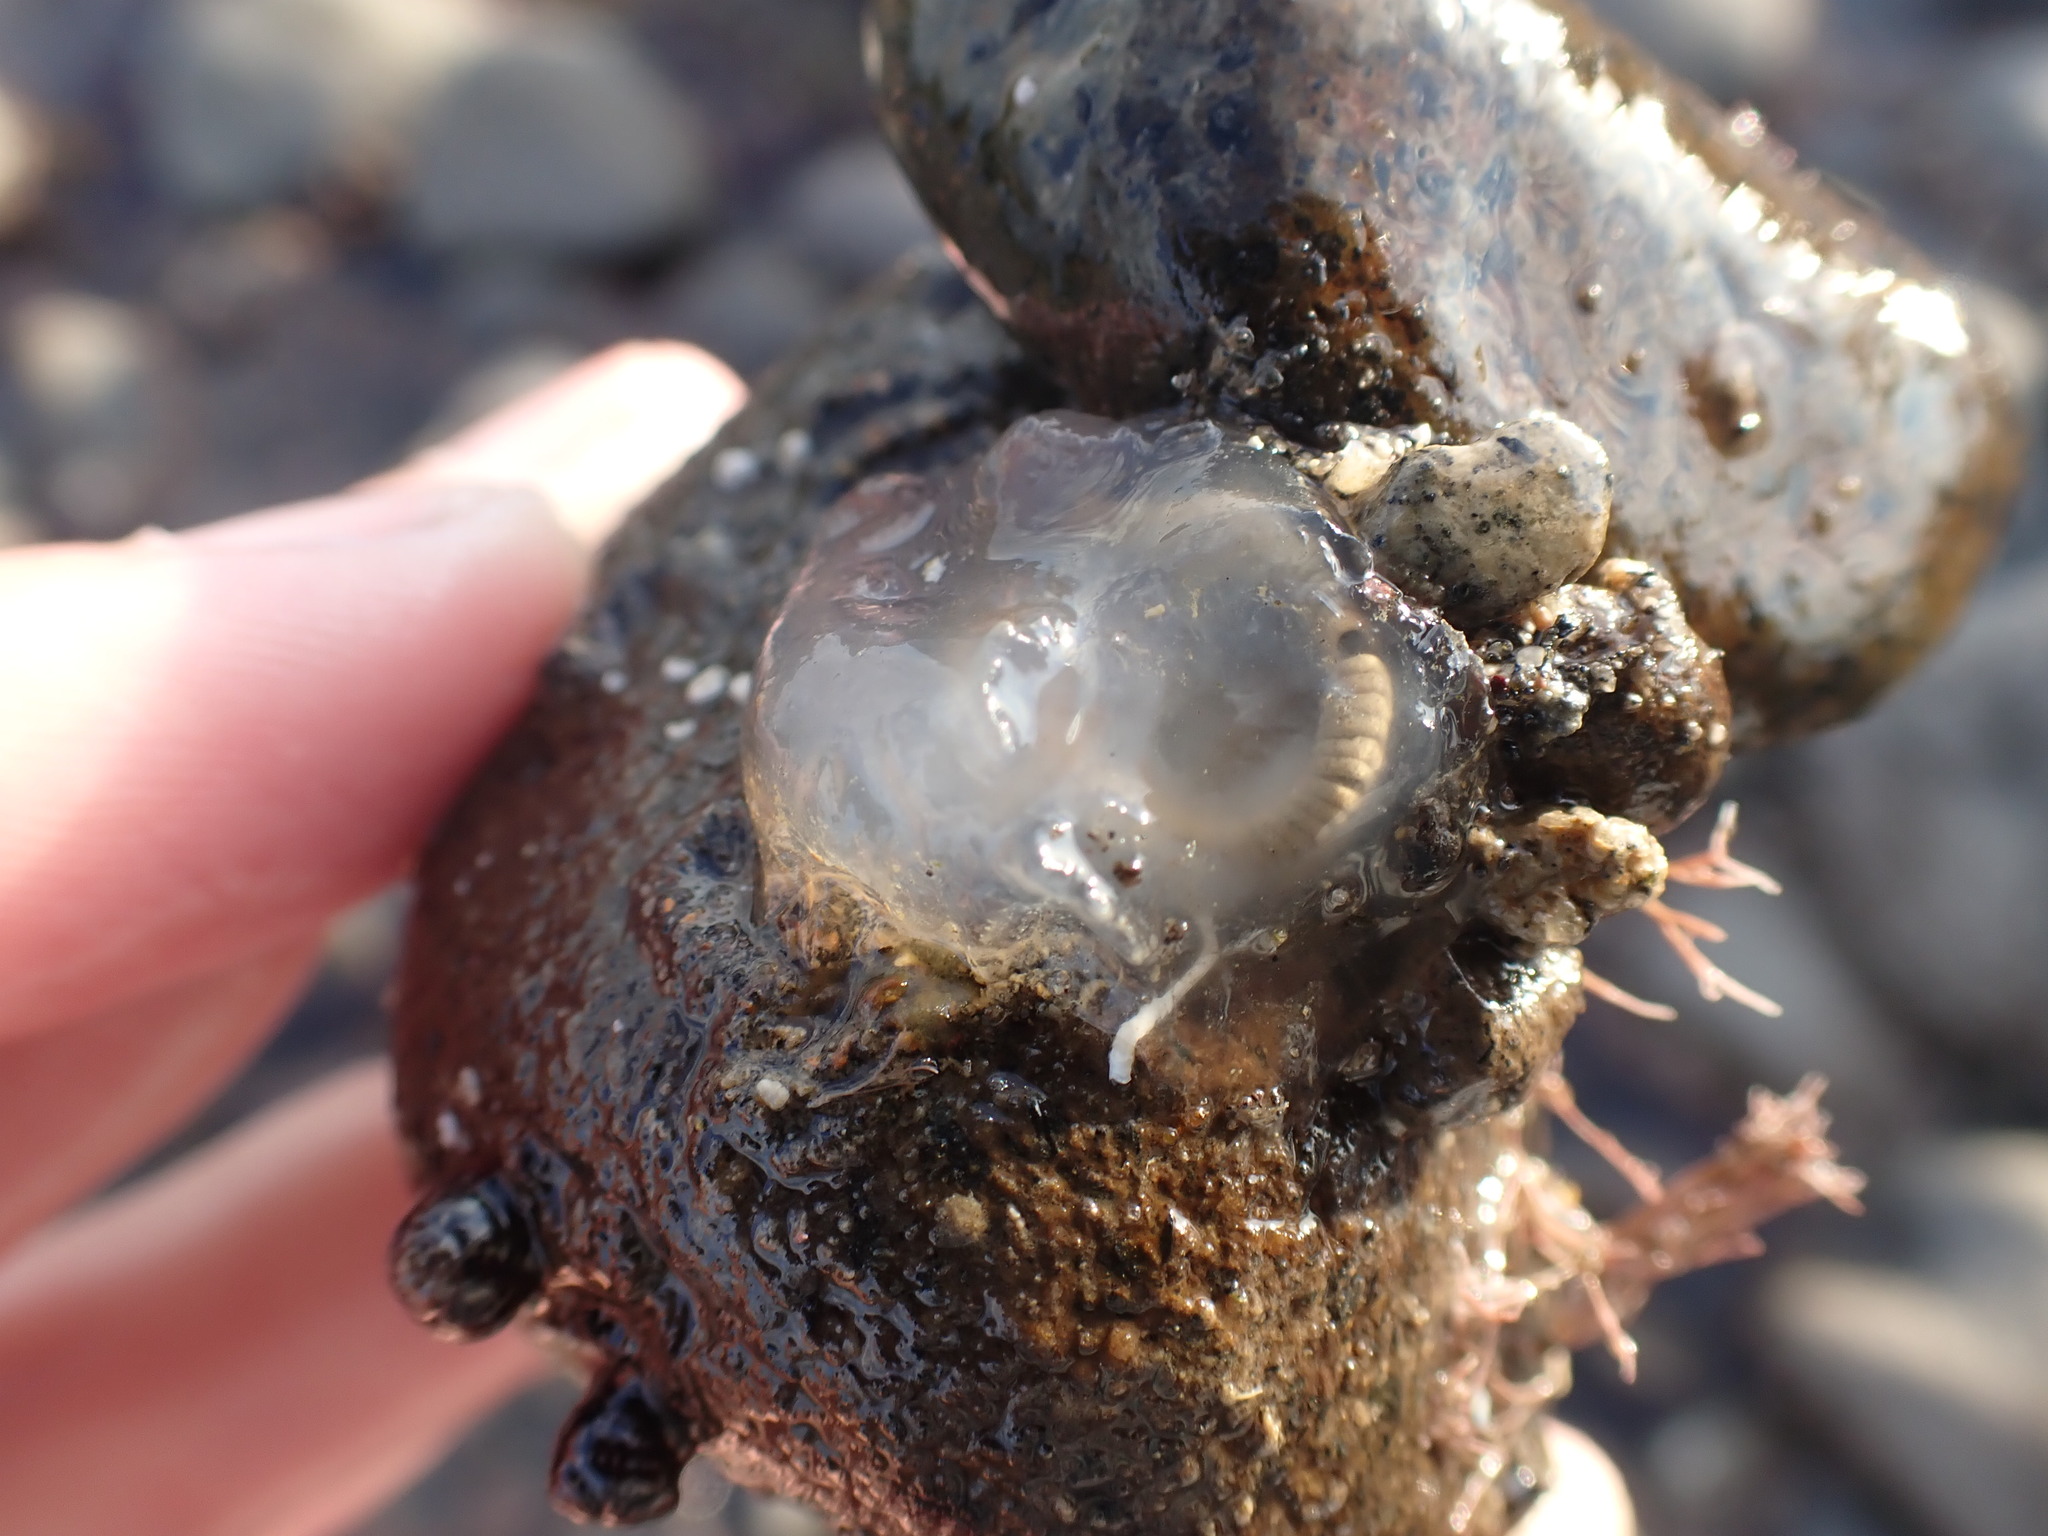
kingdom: Animalia
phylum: Chordata
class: Ascidiacea
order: Phlebobranchia
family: Agneziidae
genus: Agnezia
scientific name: Agnezia glaciata
